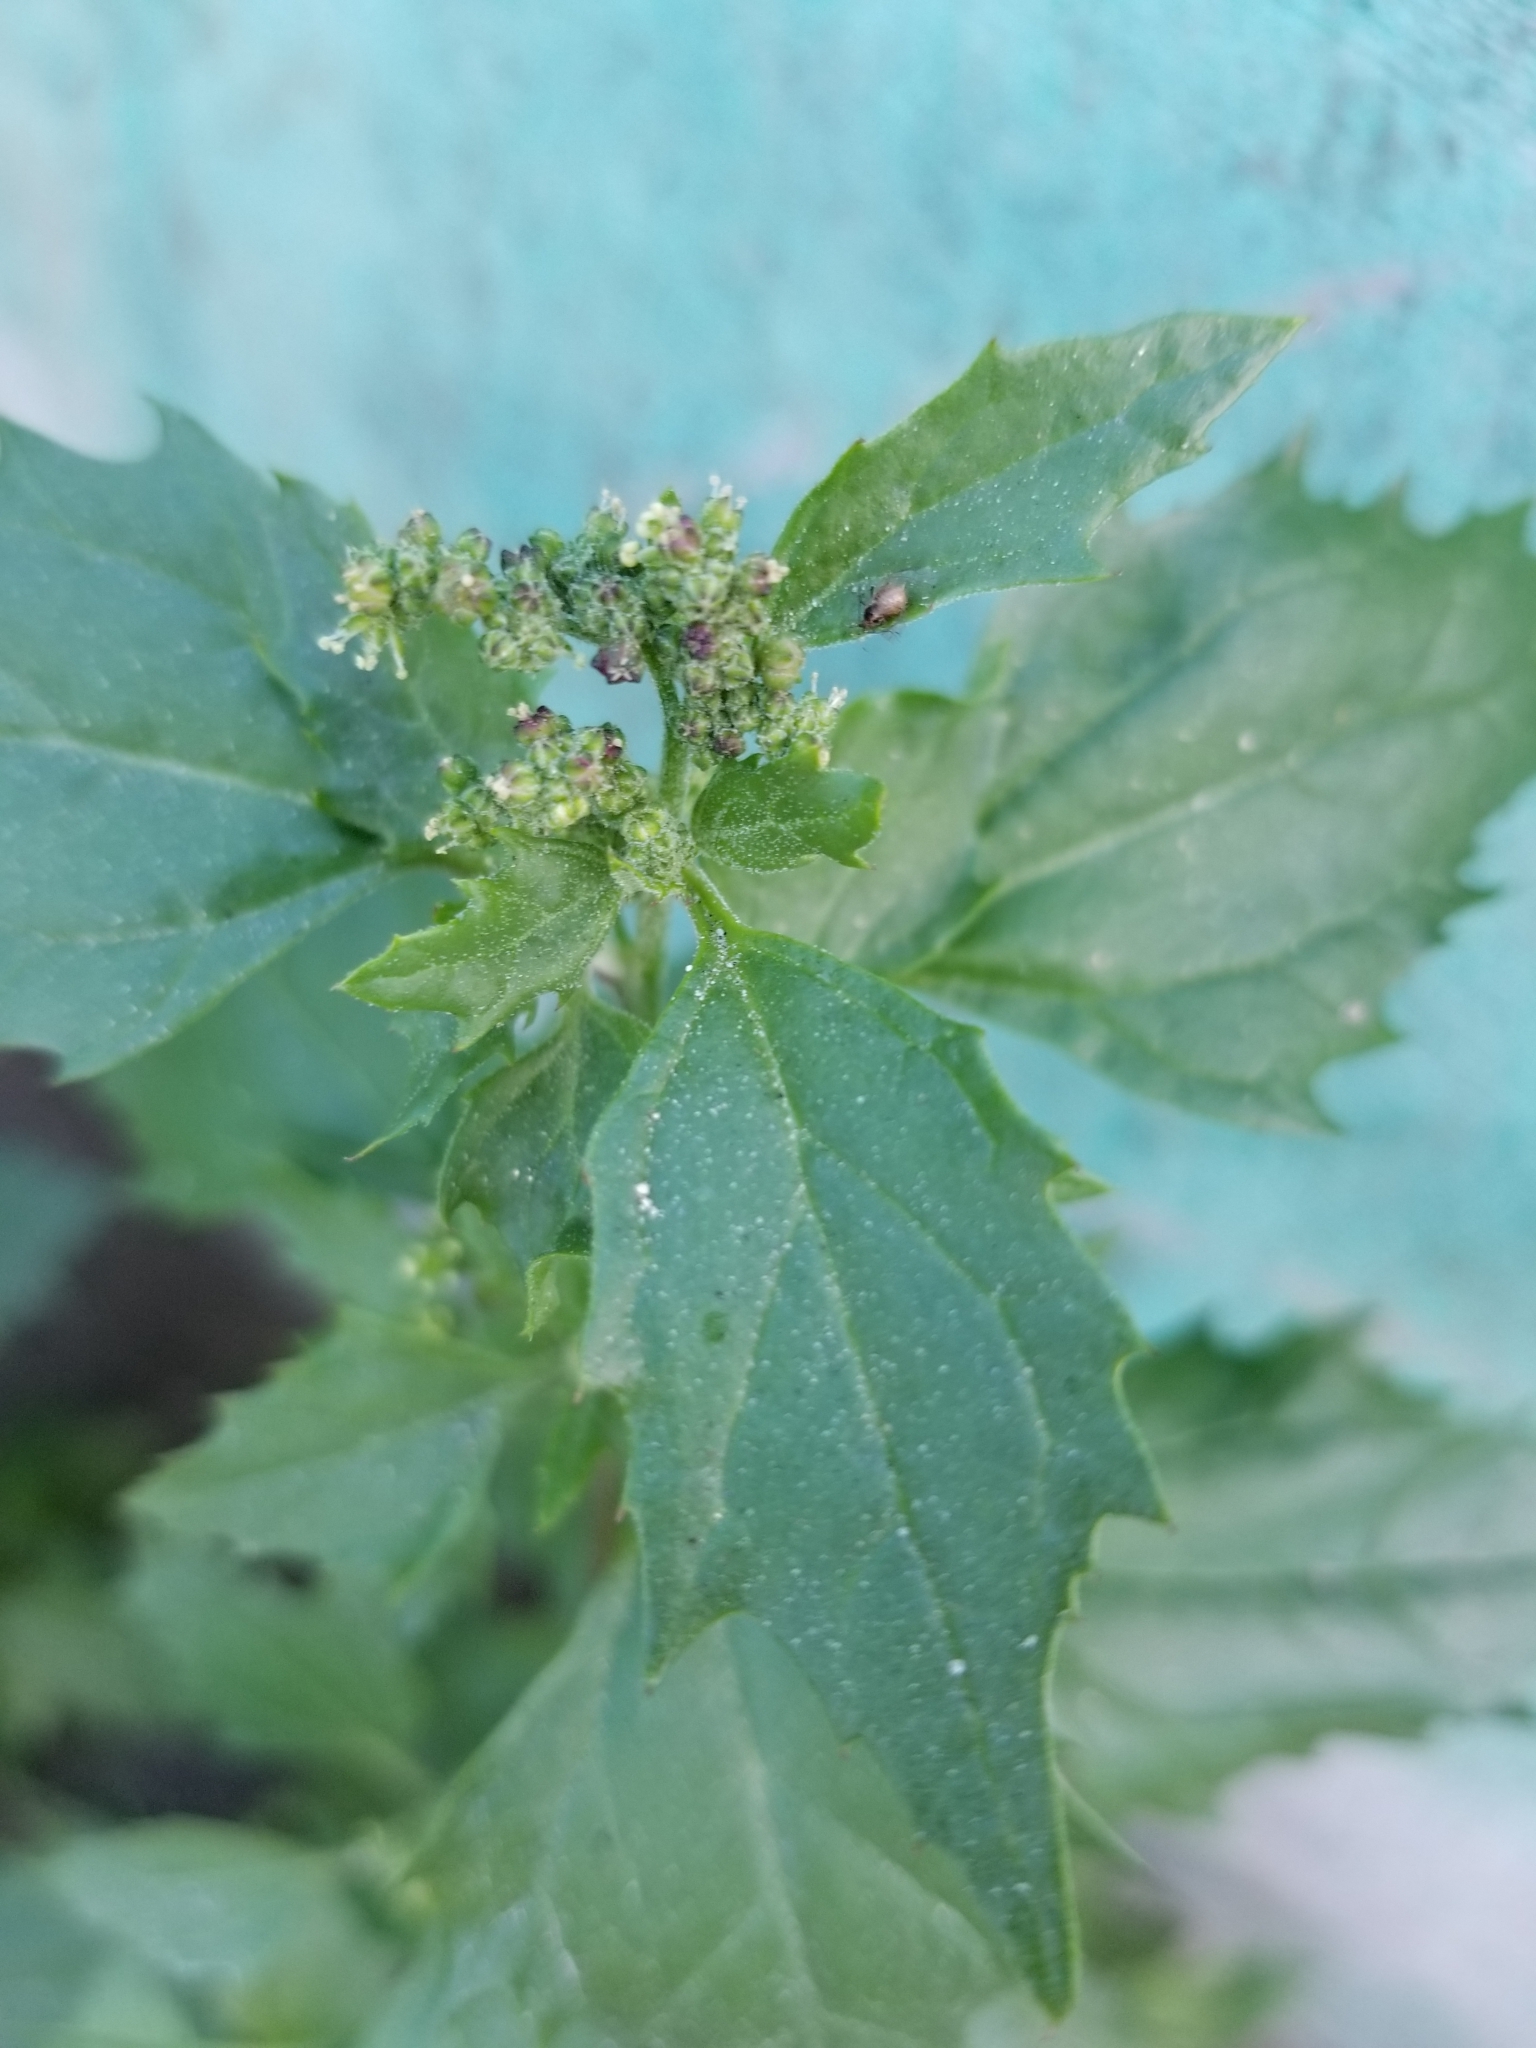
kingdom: Plantae
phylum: Tracheophyta
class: Magnoliopsida
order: Caryophyllales
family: Amaranthaceae
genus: Chenopodiastrum
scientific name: Chenopodiastrum murale
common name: Sowbane
